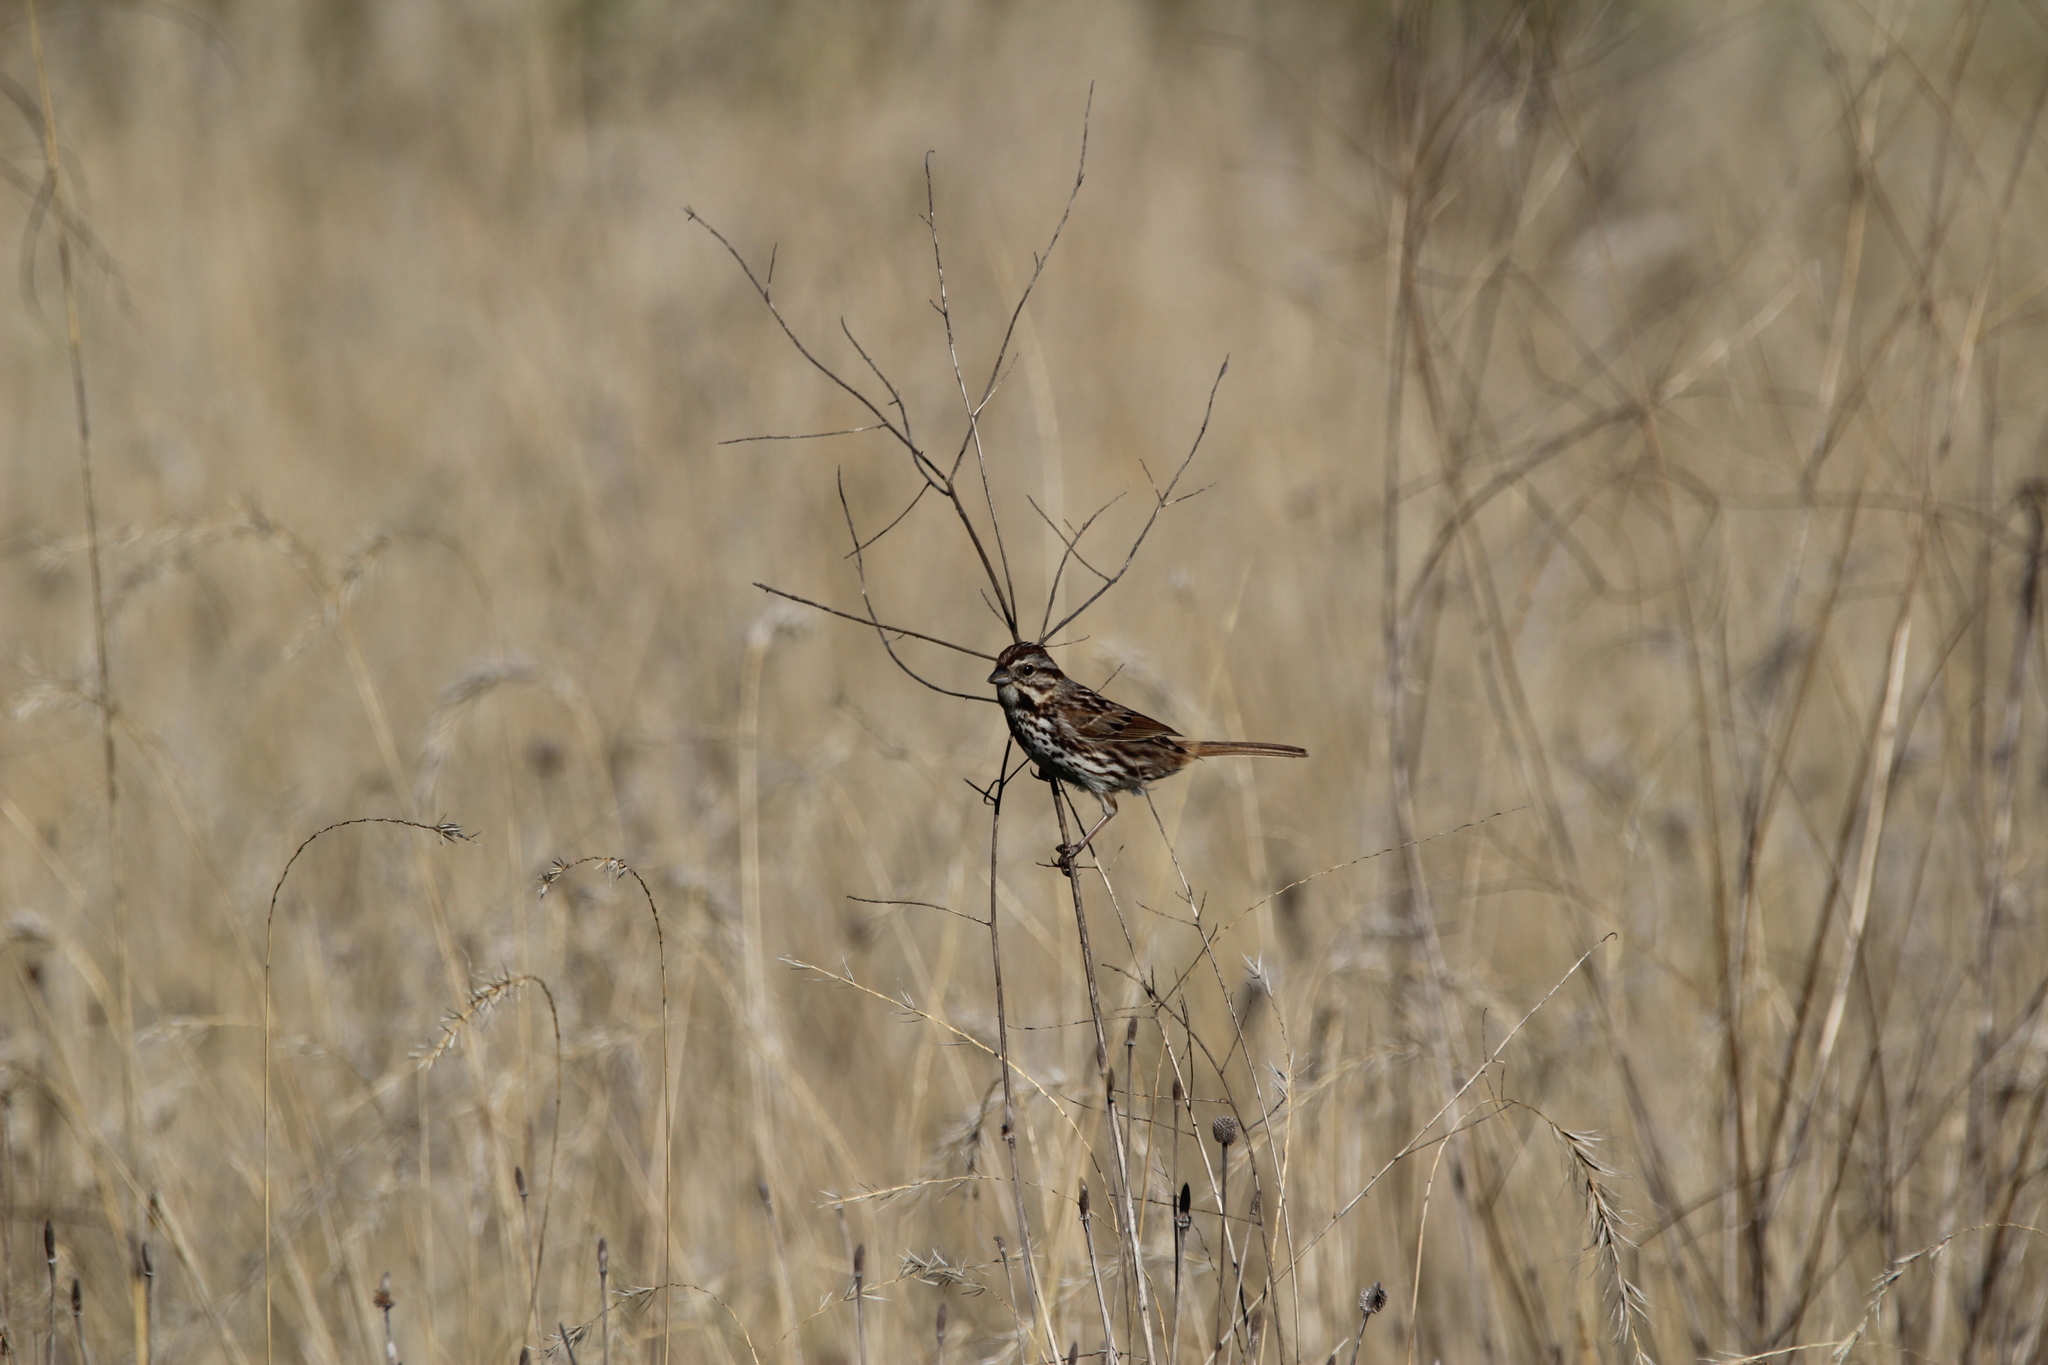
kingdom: Animalia
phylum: Chordata
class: Aves
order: Passeriformes
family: Passerellidae
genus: Melospiza
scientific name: Melospiza melodia
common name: Song sparrow
